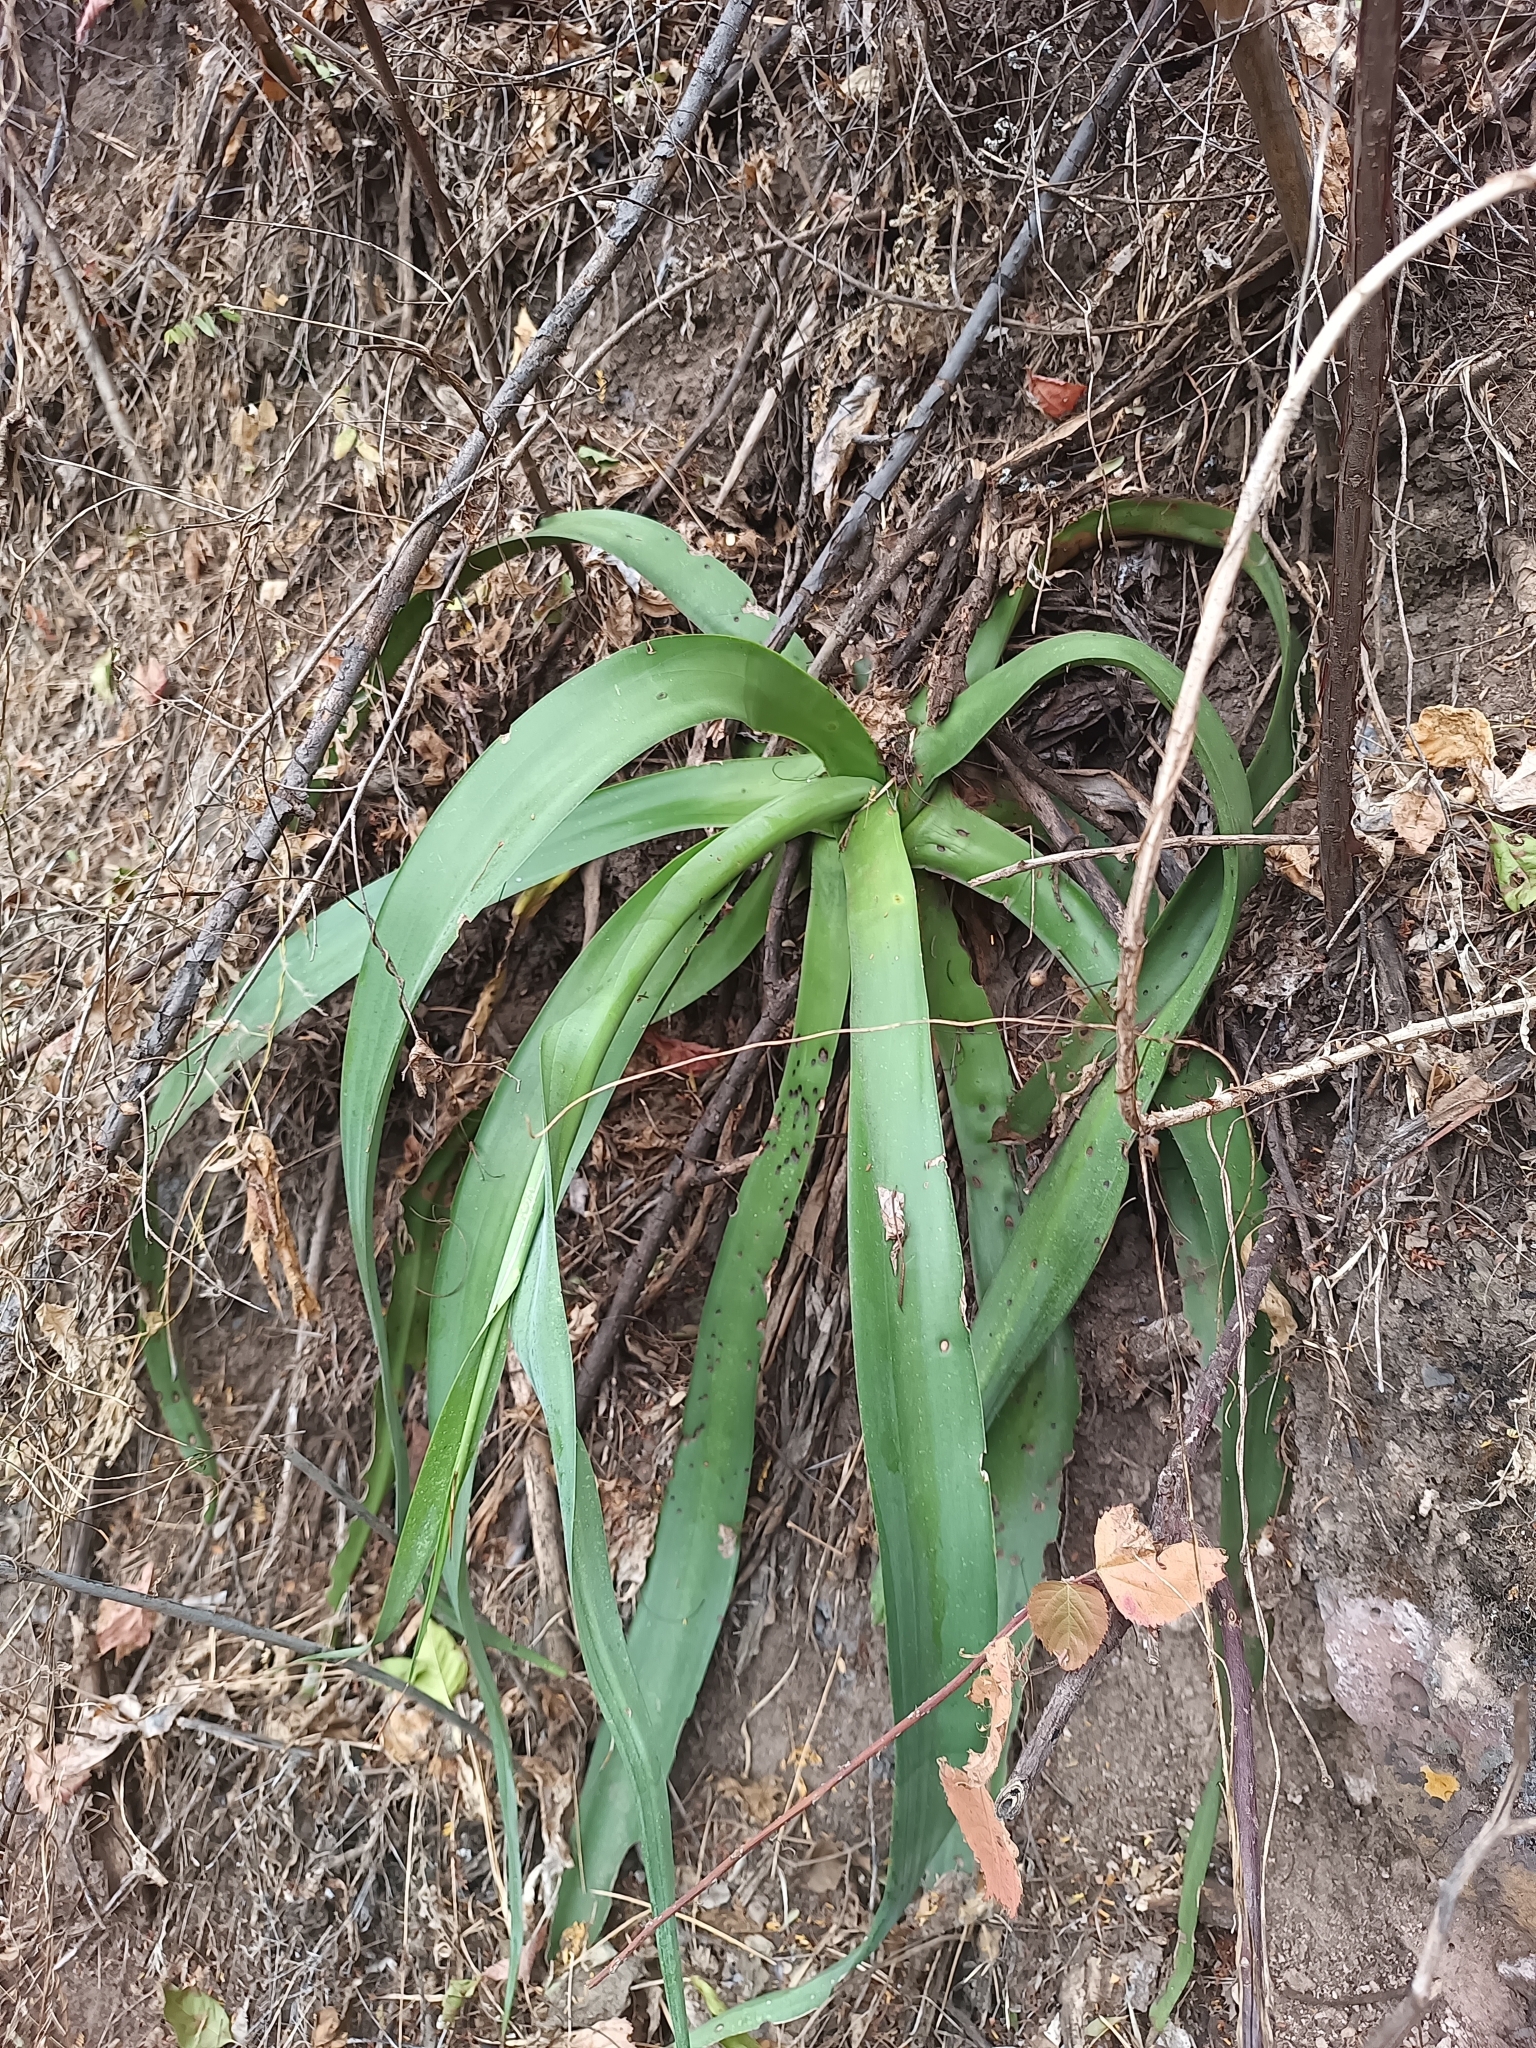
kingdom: Plantae
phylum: Tracheophyta
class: Liliopsida
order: Asparagales
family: Asparagaceae
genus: Agave
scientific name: Agave vilmoriniana
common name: Octopus plant
